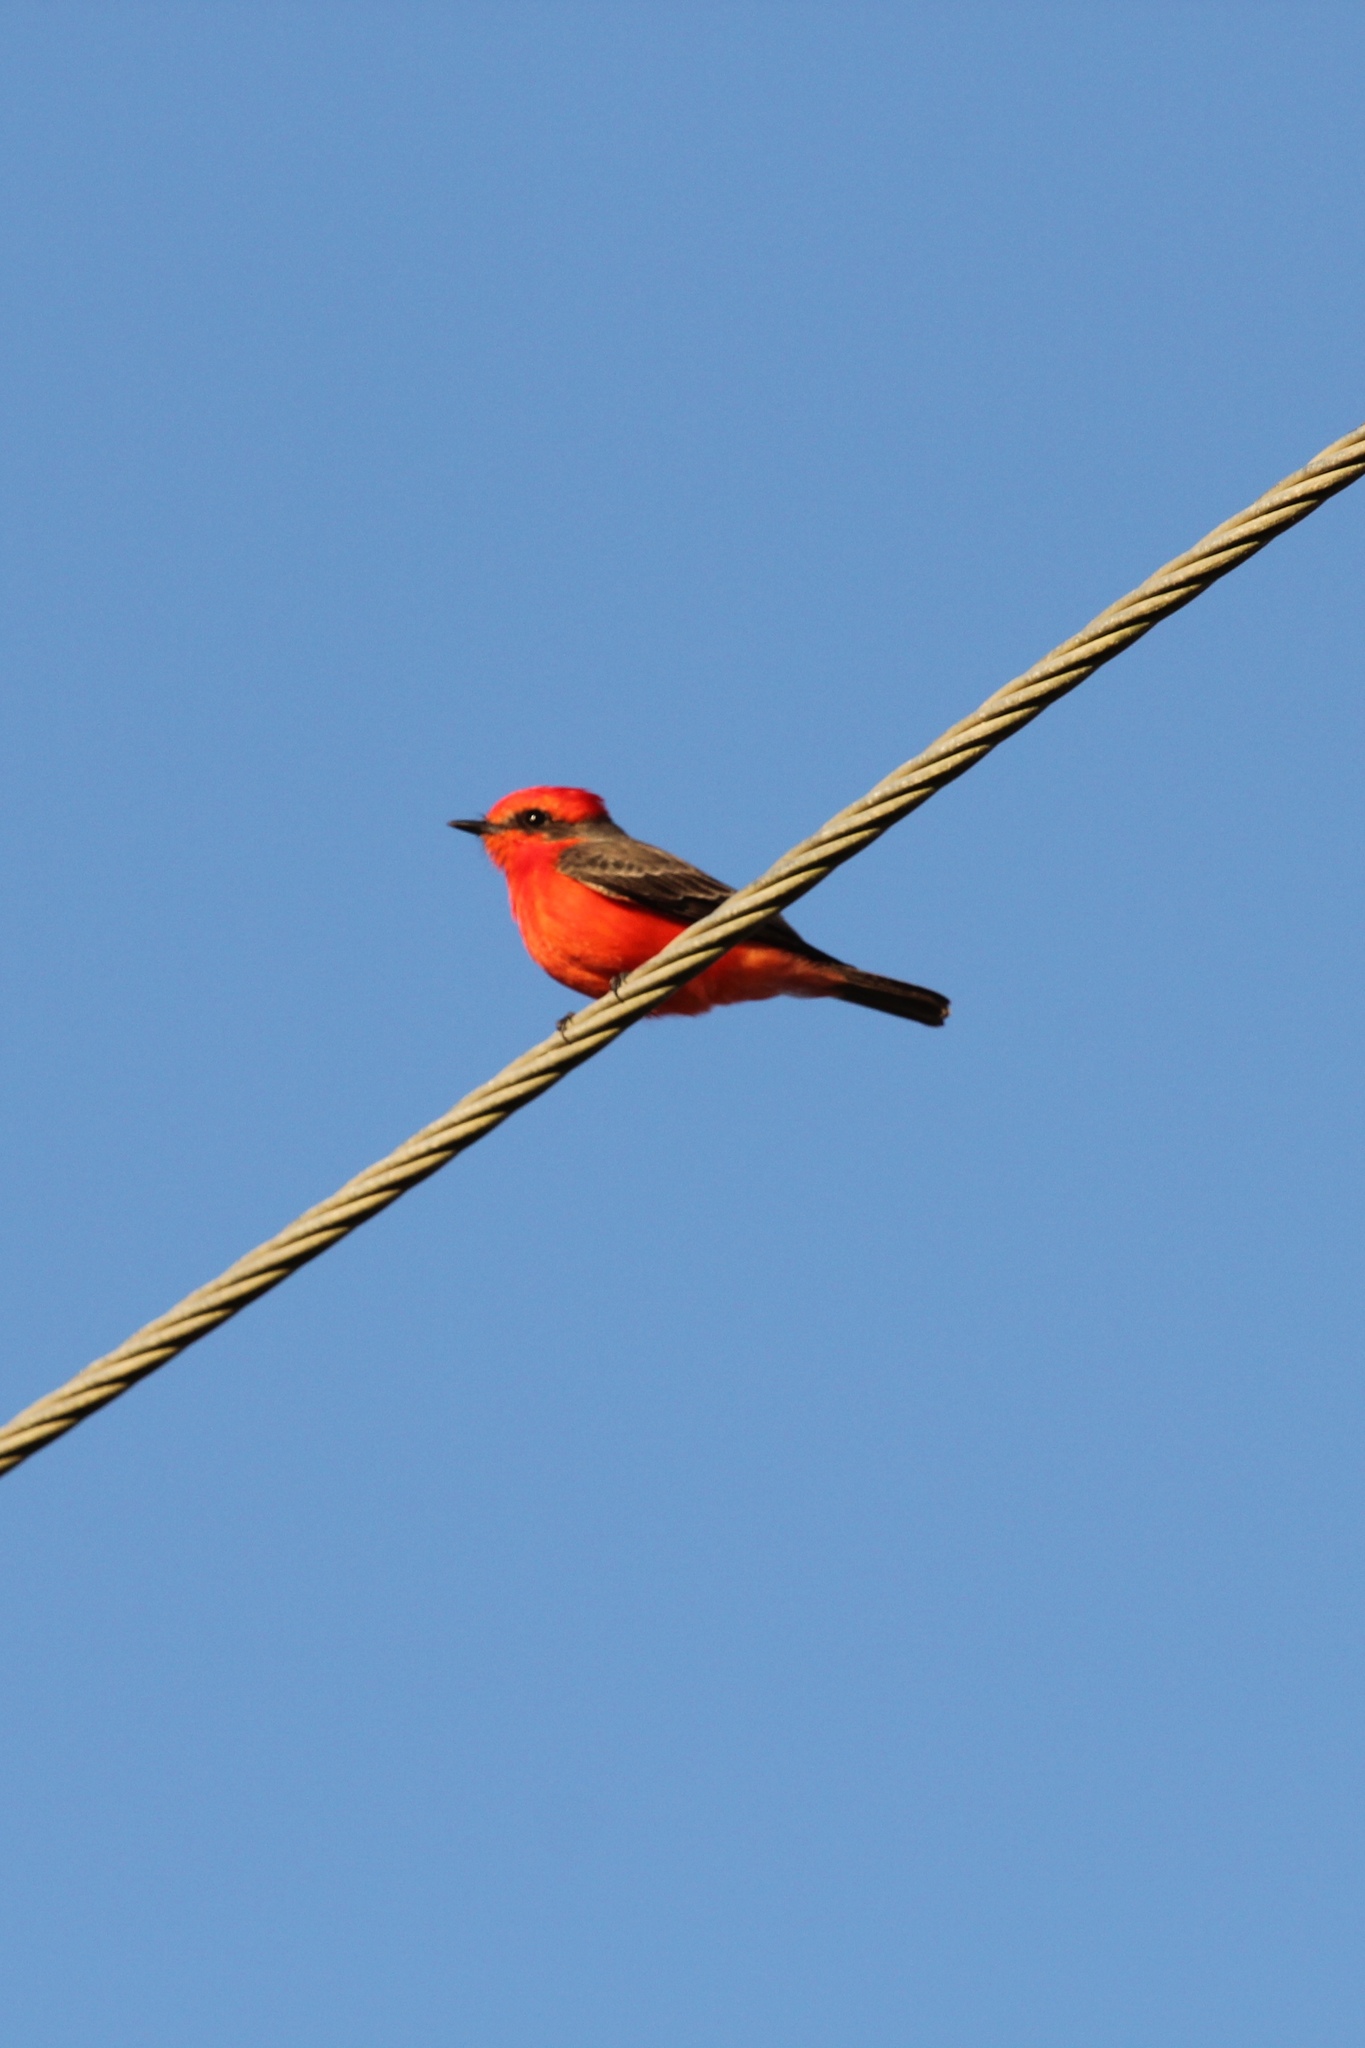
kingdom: Animalia
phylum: Chordata
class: Aves
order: Passeriformes
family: Tyrannidae
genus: Pyrocephalus
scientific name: Pyrocephalus rubinus
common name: Vermilion flycatcher
